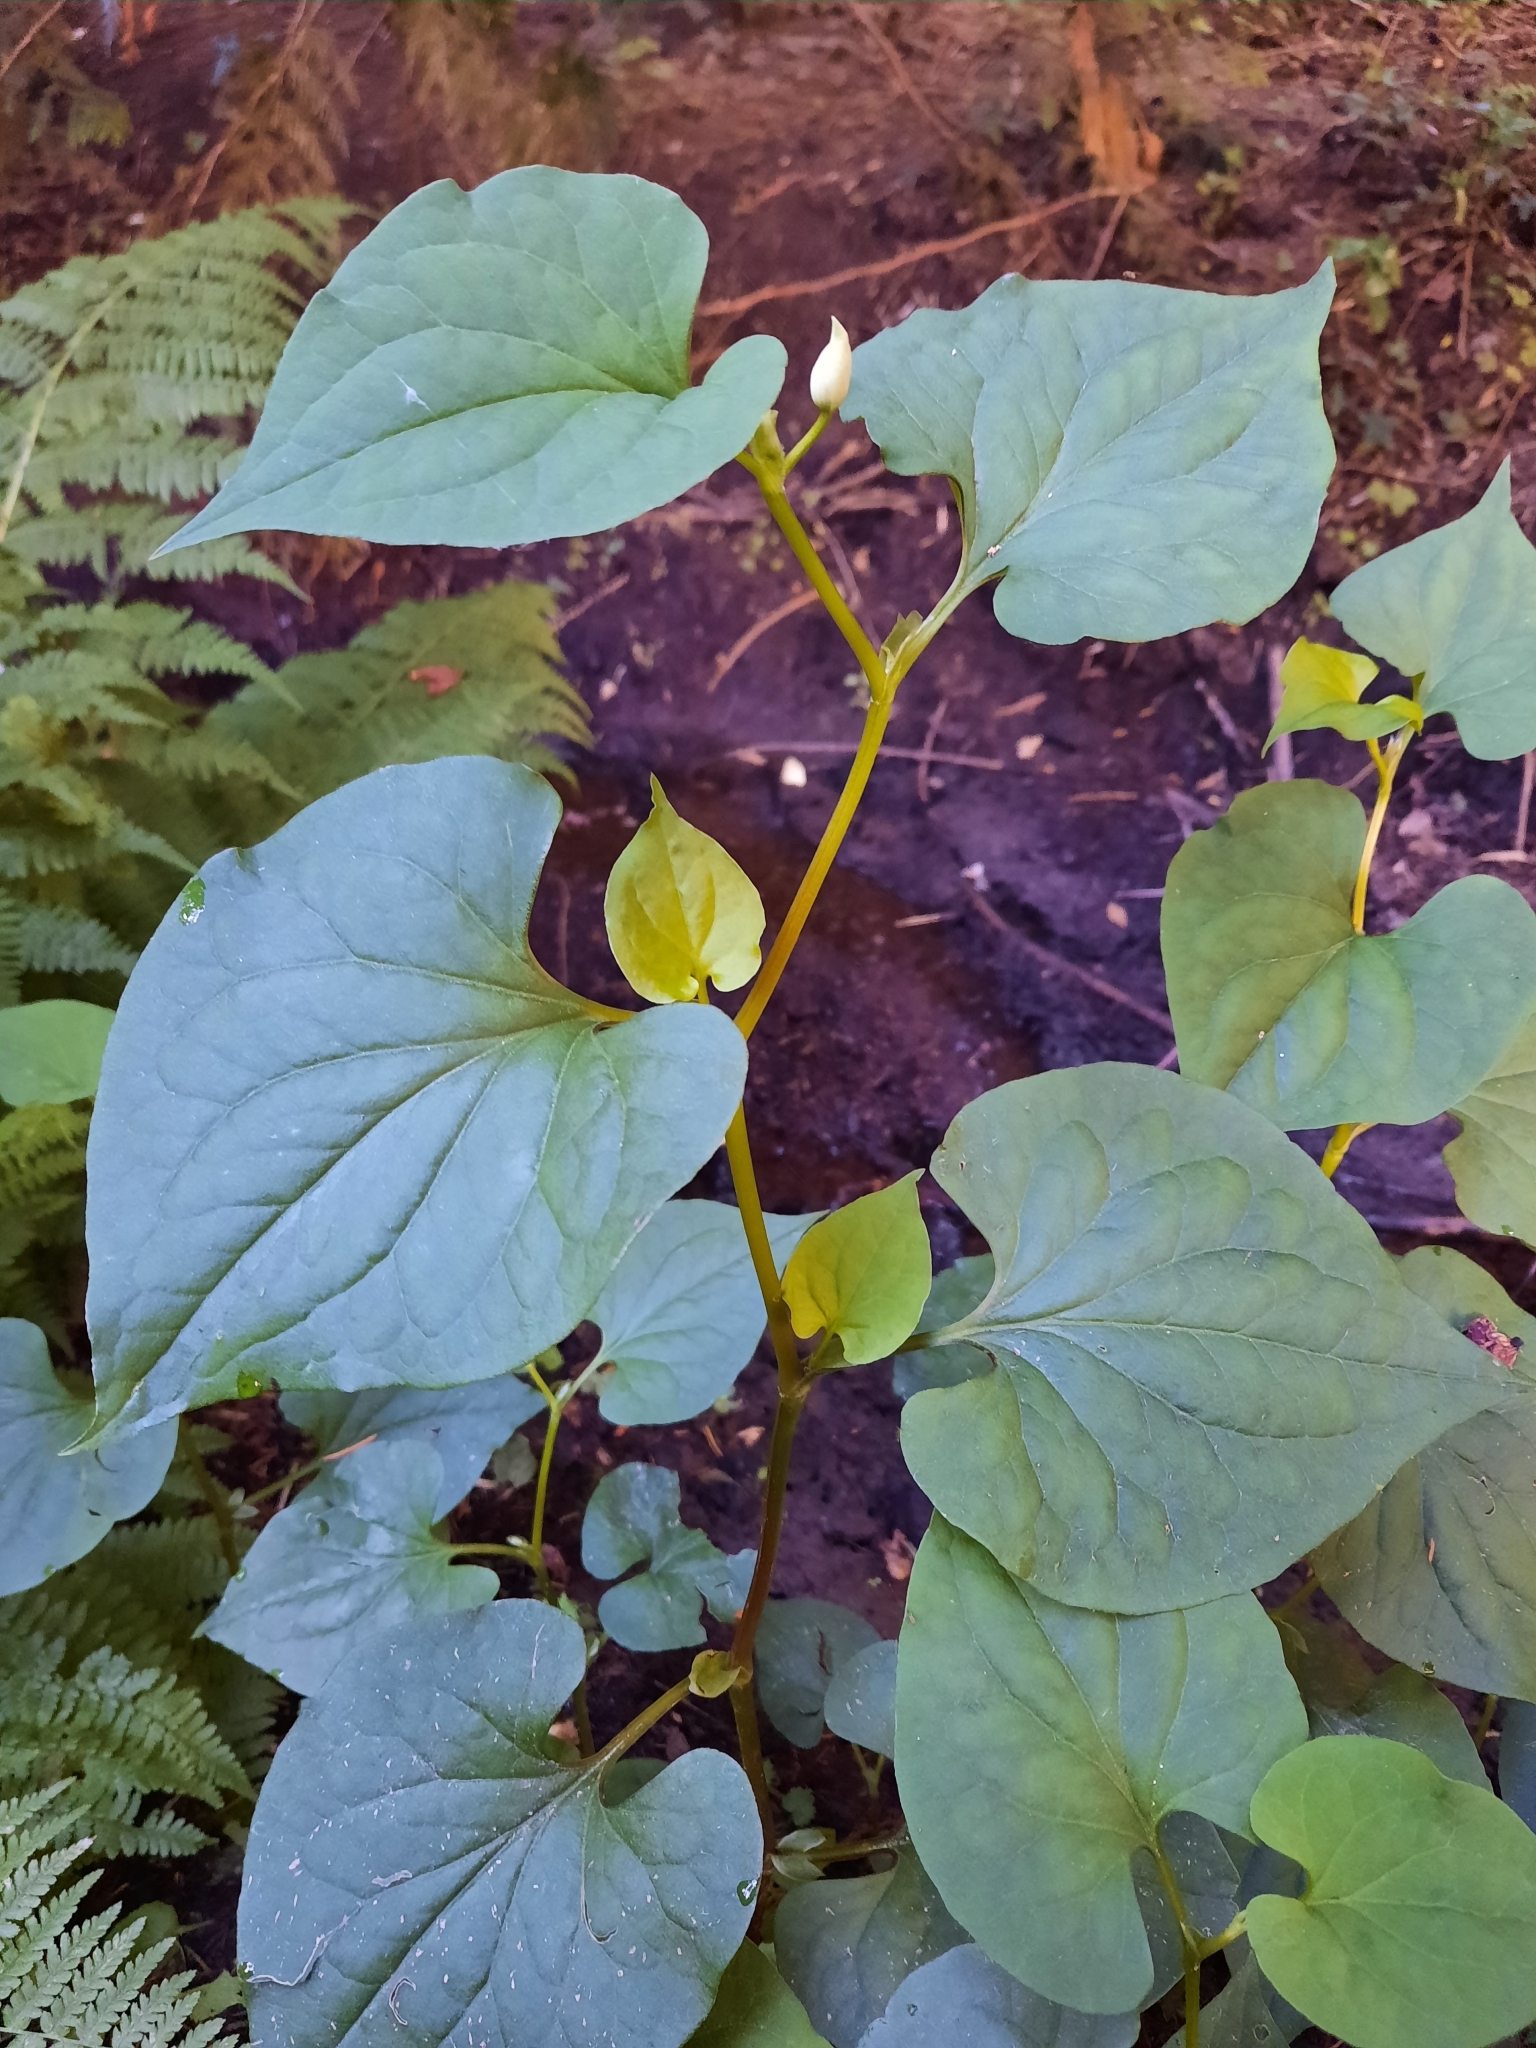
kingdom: Plantae
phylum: Tracheophyta
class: Magnoliopsida
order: Piperales
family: Saururaceae
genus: Houttuynia
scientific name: Houttuynia cordata
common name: Chameleon
